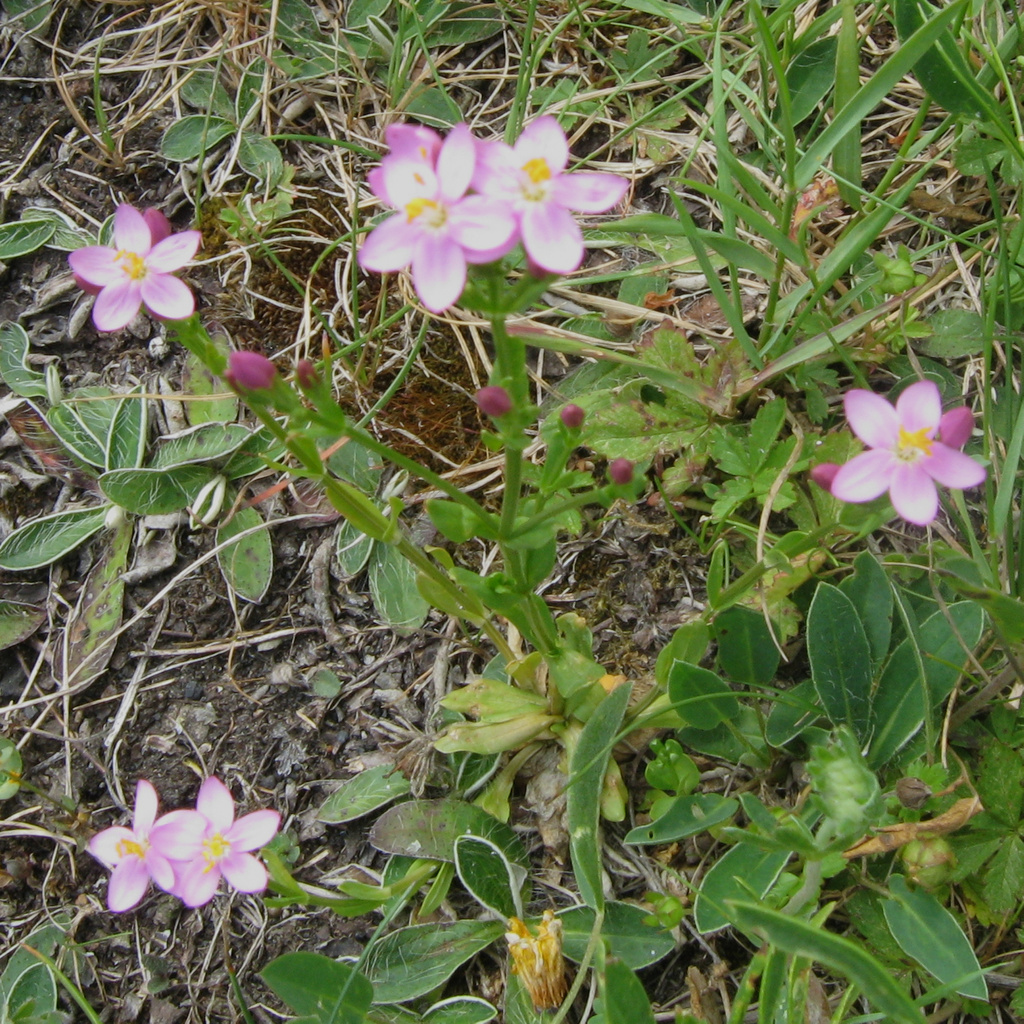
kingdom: Plantae
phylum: Tracheophyta
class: Magnoliopsida
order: Gentianales
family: Gentianaceae
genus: Centaurium
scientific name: Centaurium erythraea
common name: Common centaury
